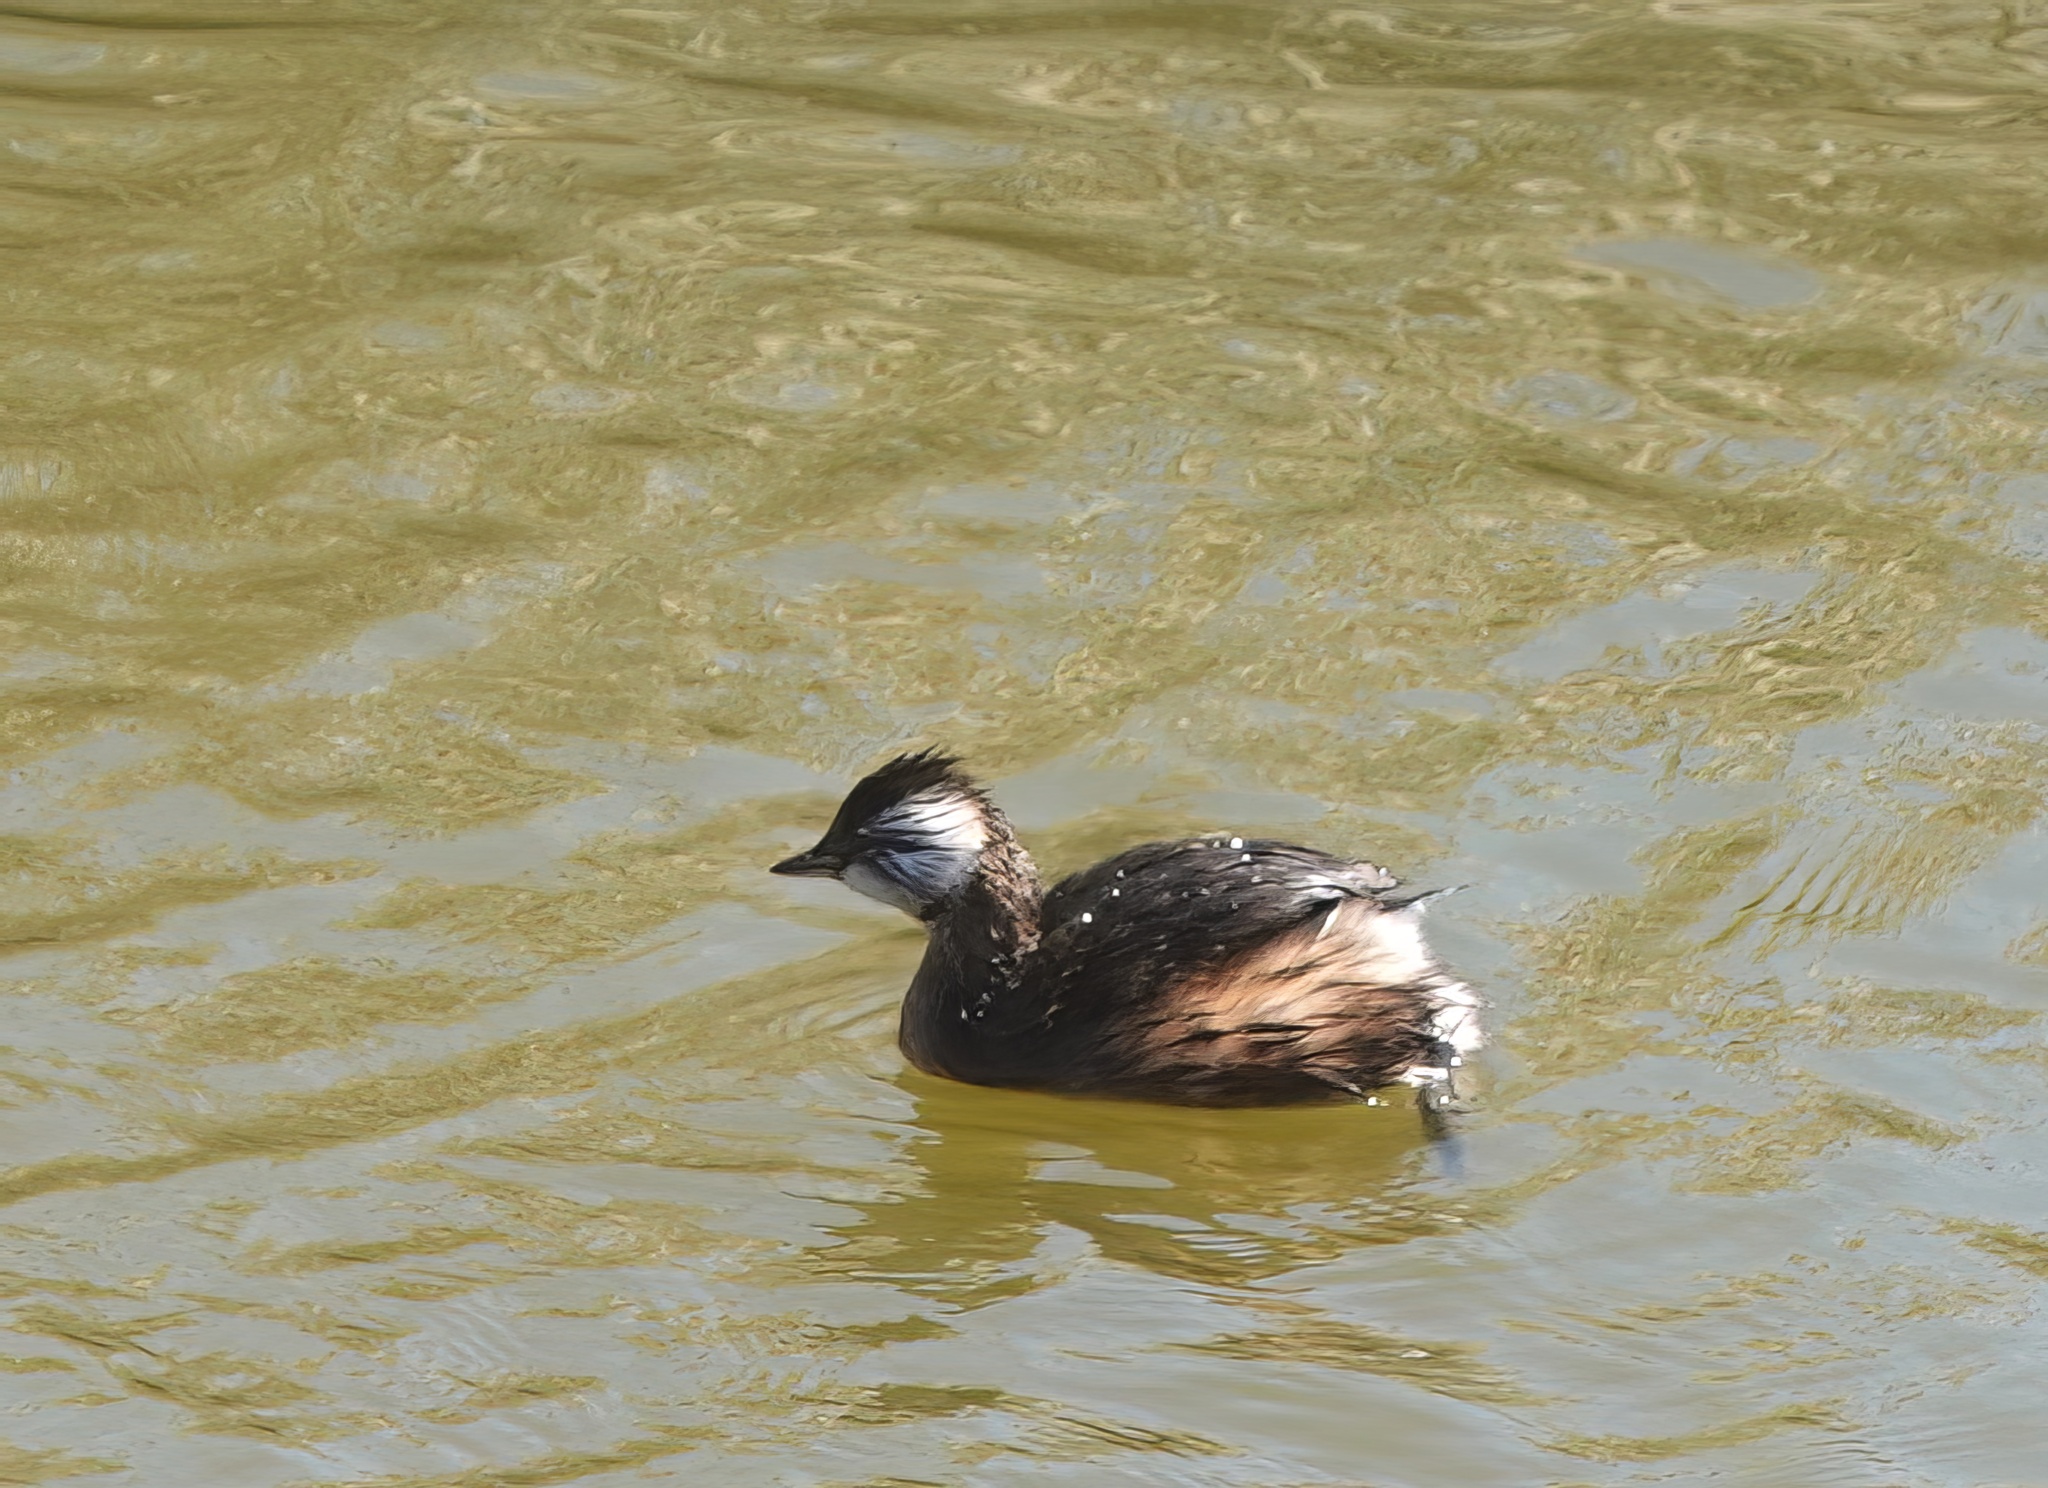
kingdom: Animalia
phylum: Chordata
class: Aves
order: Podicipediformes
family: Podicipedidae
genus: Rollandia
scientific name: Rollandia rolland
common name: White-tufted grebe
